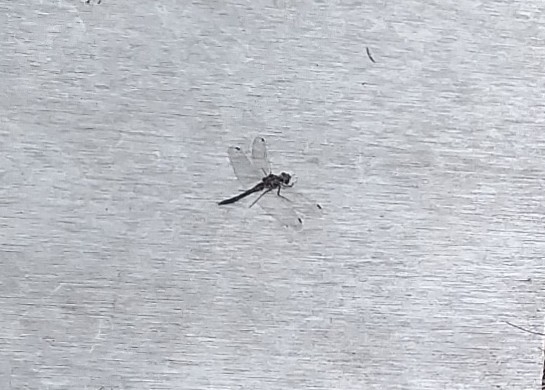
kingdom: Animalia
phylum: Arthropoda
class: Insecta
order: Odonata
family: Libellulidae
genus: Sympetrum
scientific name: Sympetrum danae
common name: Black darter
